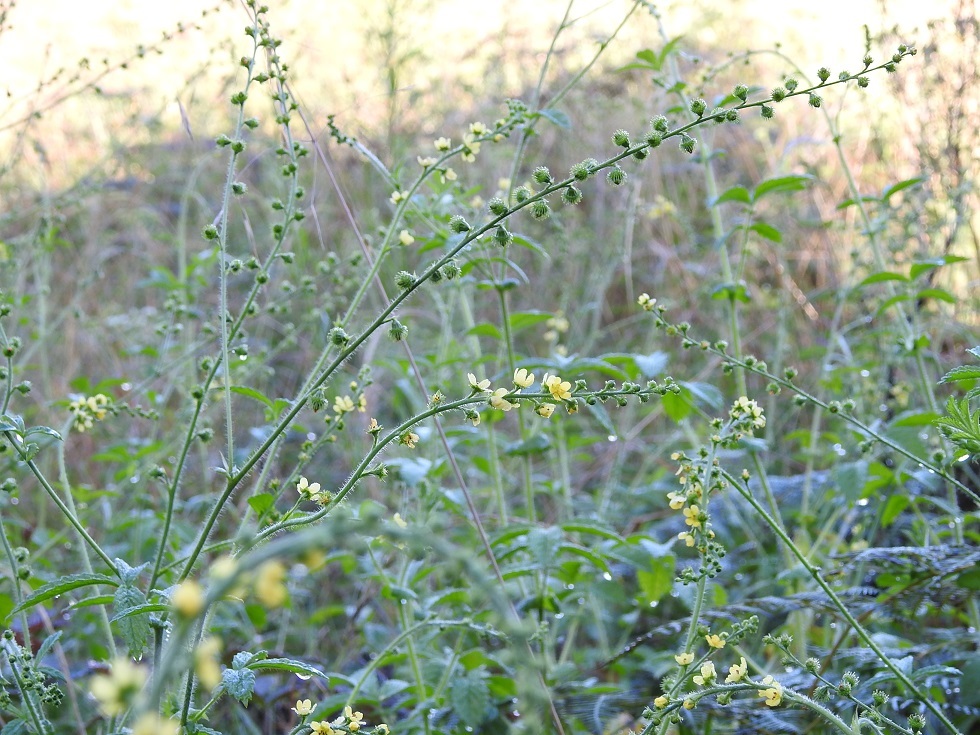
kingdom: Plantae
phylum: Tracheophyta
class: Magnoliopsida
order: Rosales
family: Rosaceae
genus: Agrimonia
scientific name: Agrimonia gryposepala
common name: Common agrimony
